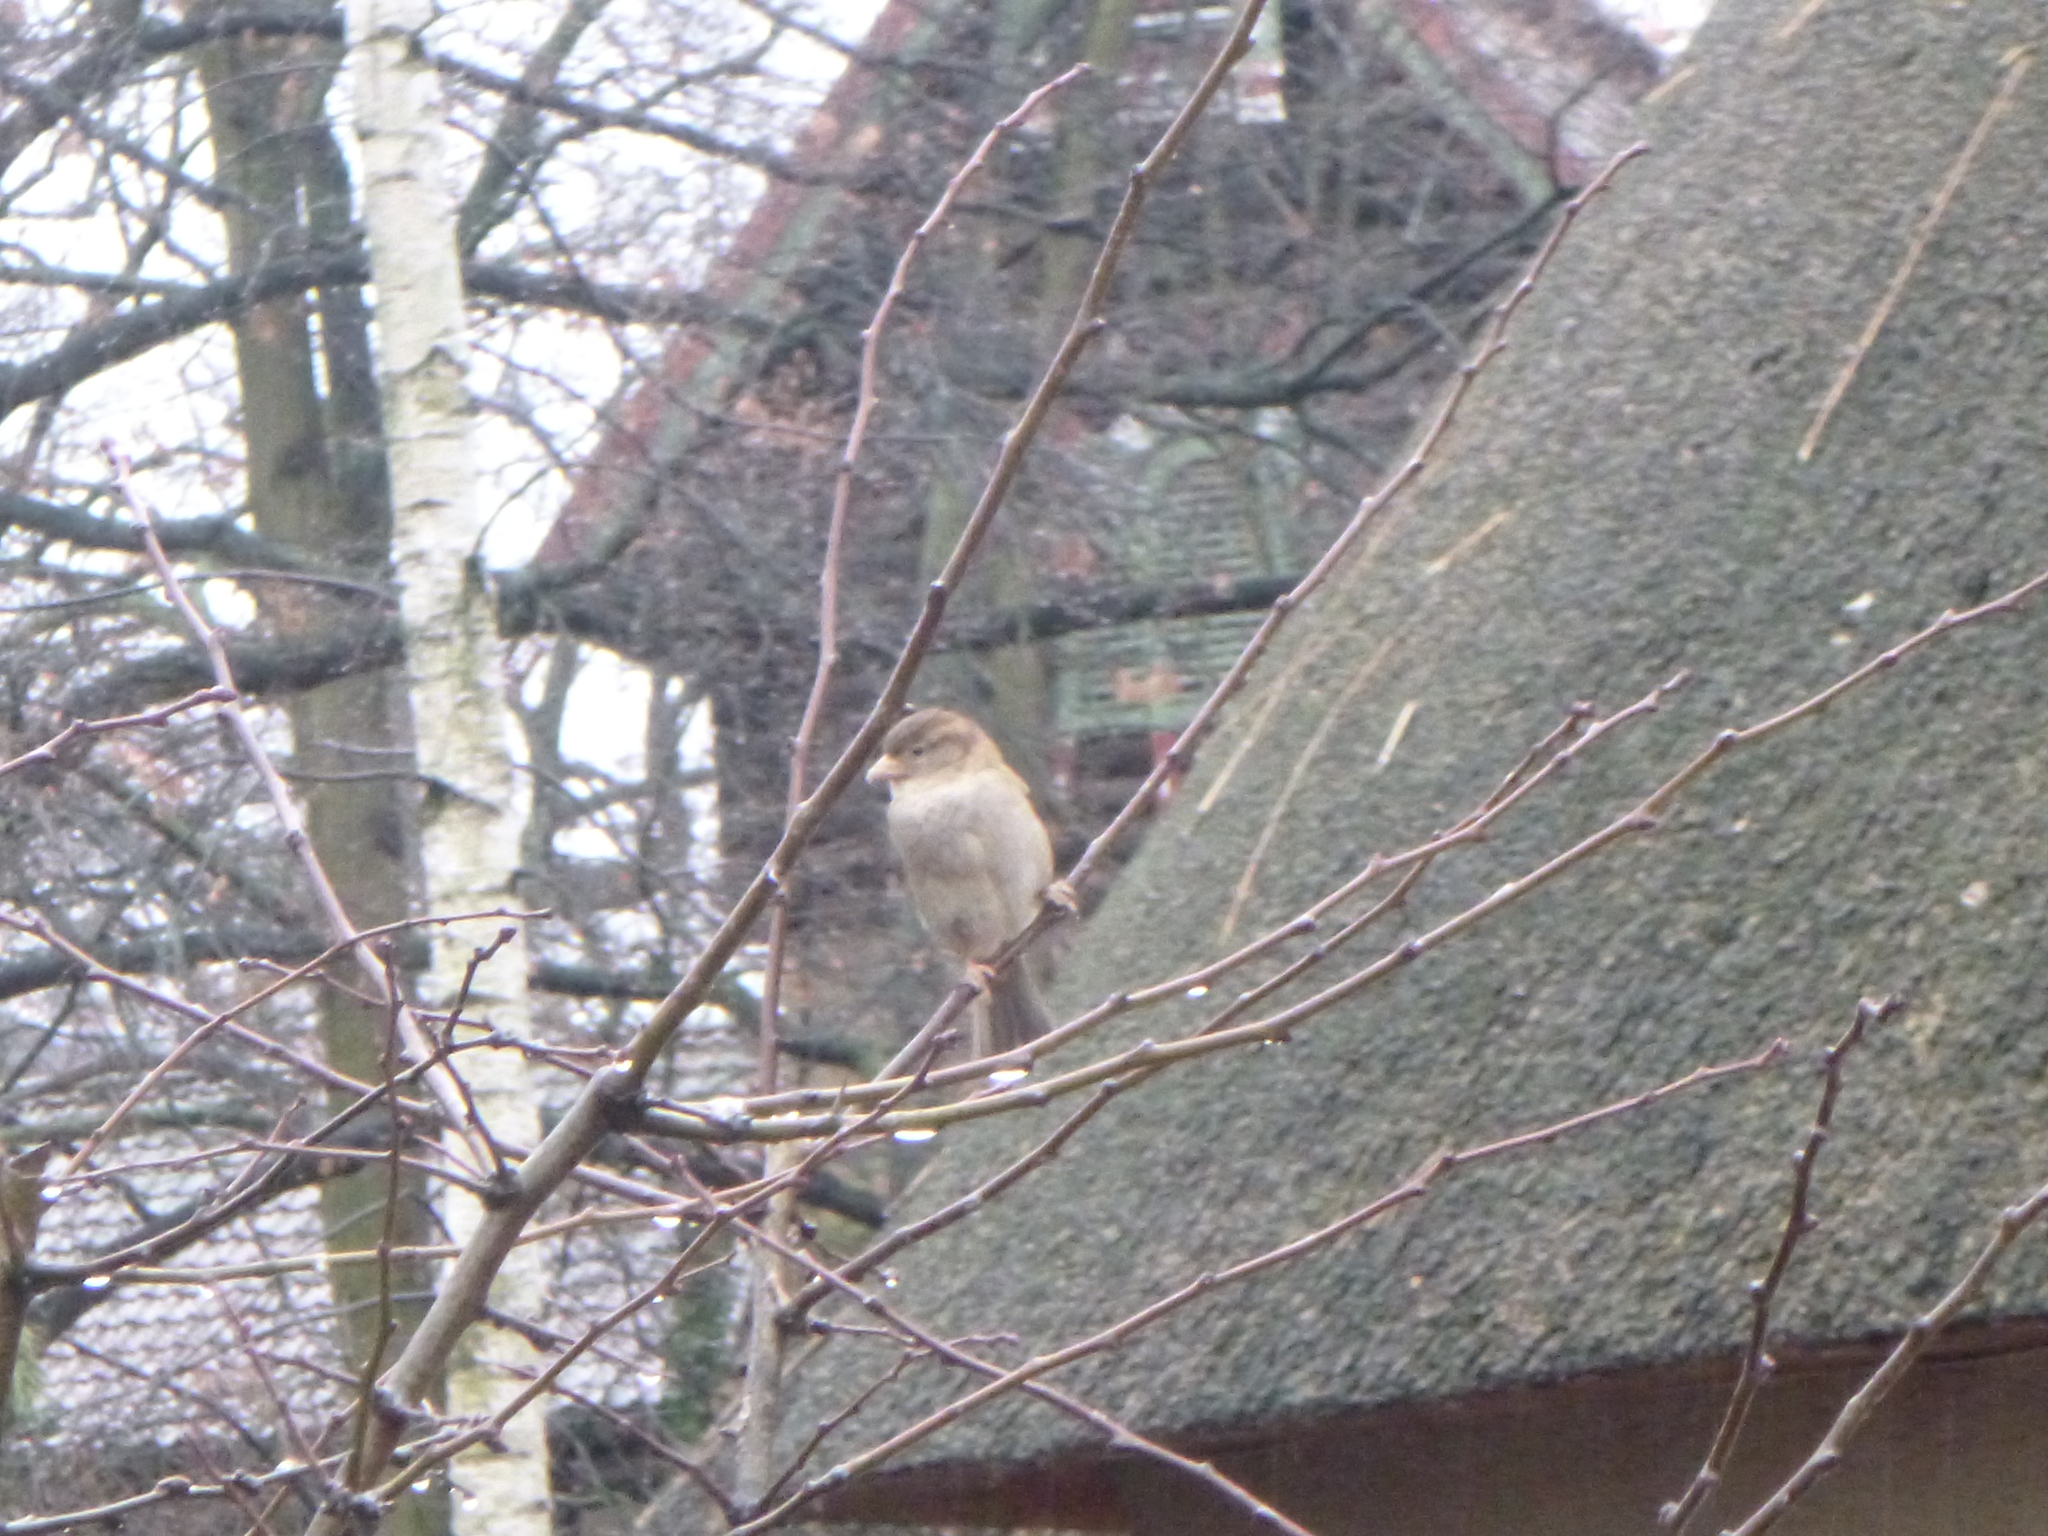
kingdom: Animalia
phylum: Chordata
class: Aves
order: Passeriformes
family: Passeridae
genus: Passer
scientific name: Passer domesticus
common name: House sparrow
